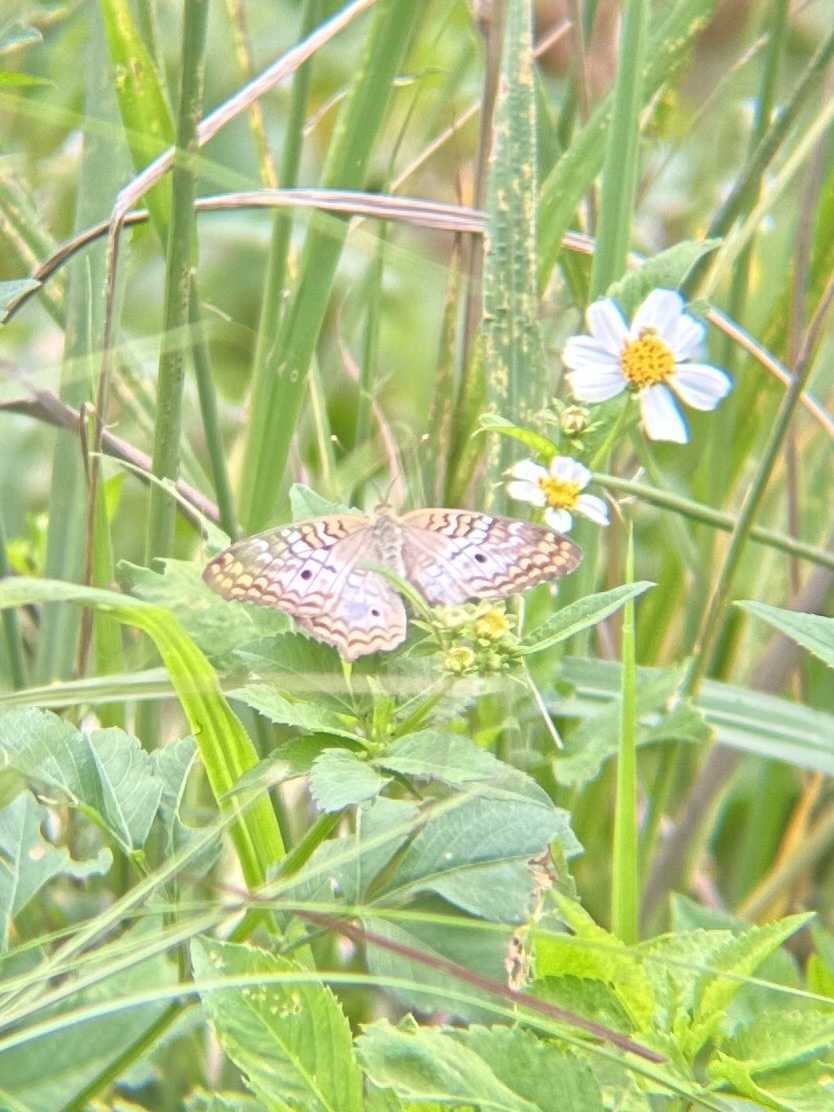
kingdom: Animalia
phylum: Arthropoda
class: Insecta
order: Lepidoptera
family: Nymphalidae
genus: Anartia
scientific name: Anartia jatrophae
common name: White peacock
